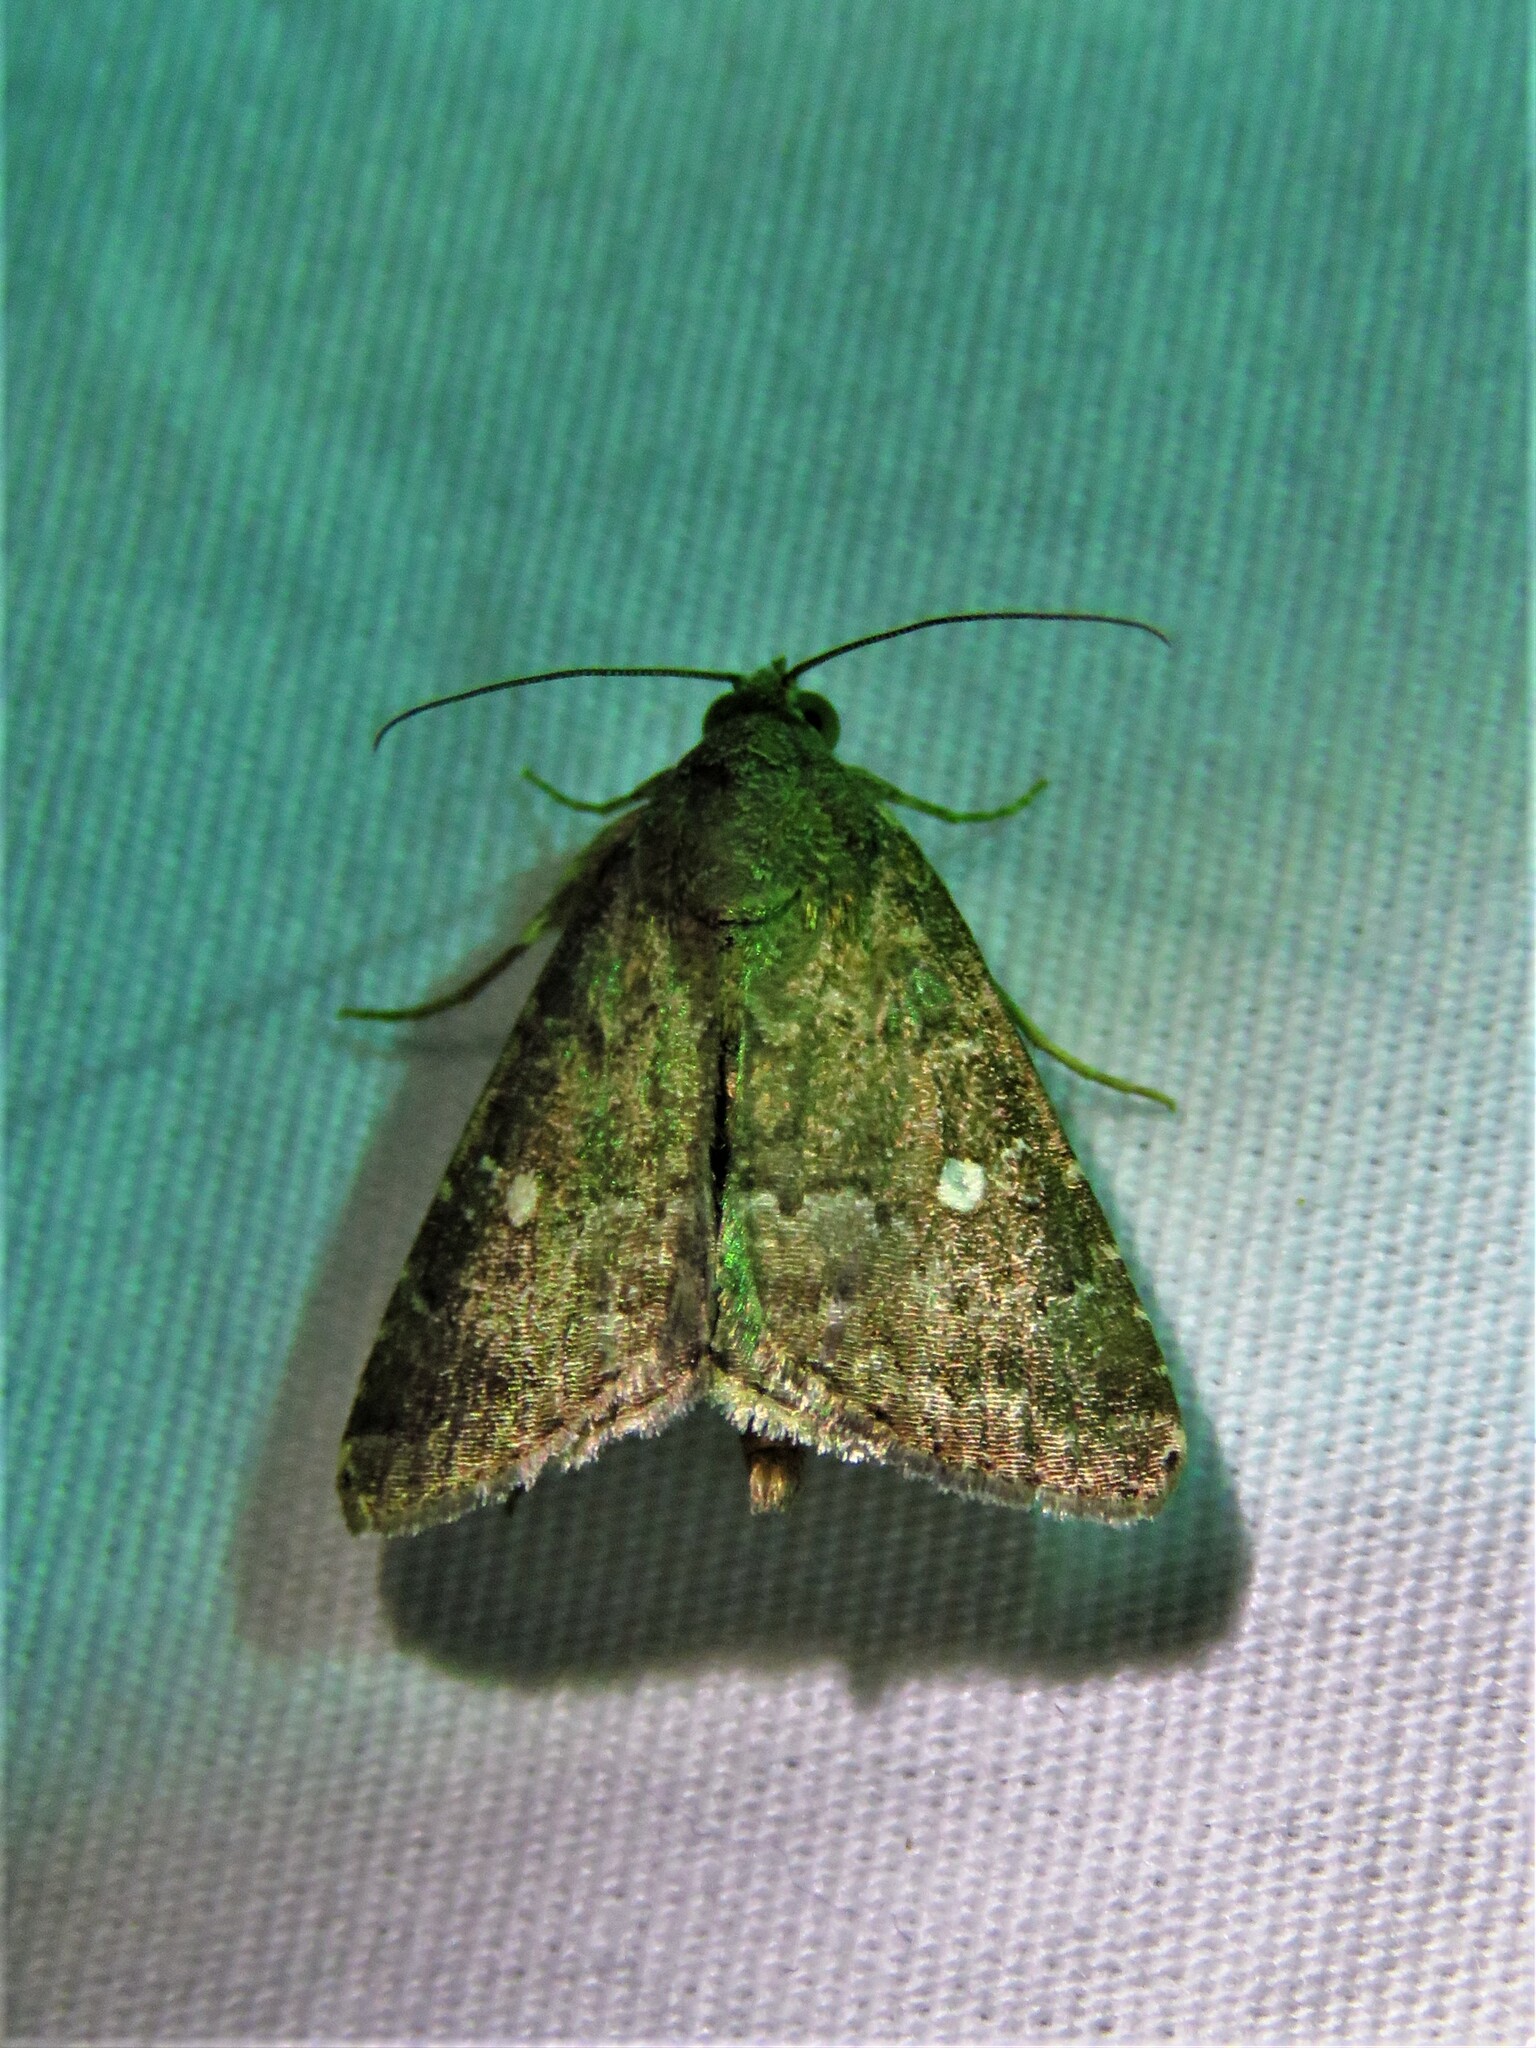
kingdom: Animalia
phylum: Arthropoda
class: Insecta
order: Lepidoptera
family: Noctuidae
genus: Amyna
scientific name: Amyna stricta
